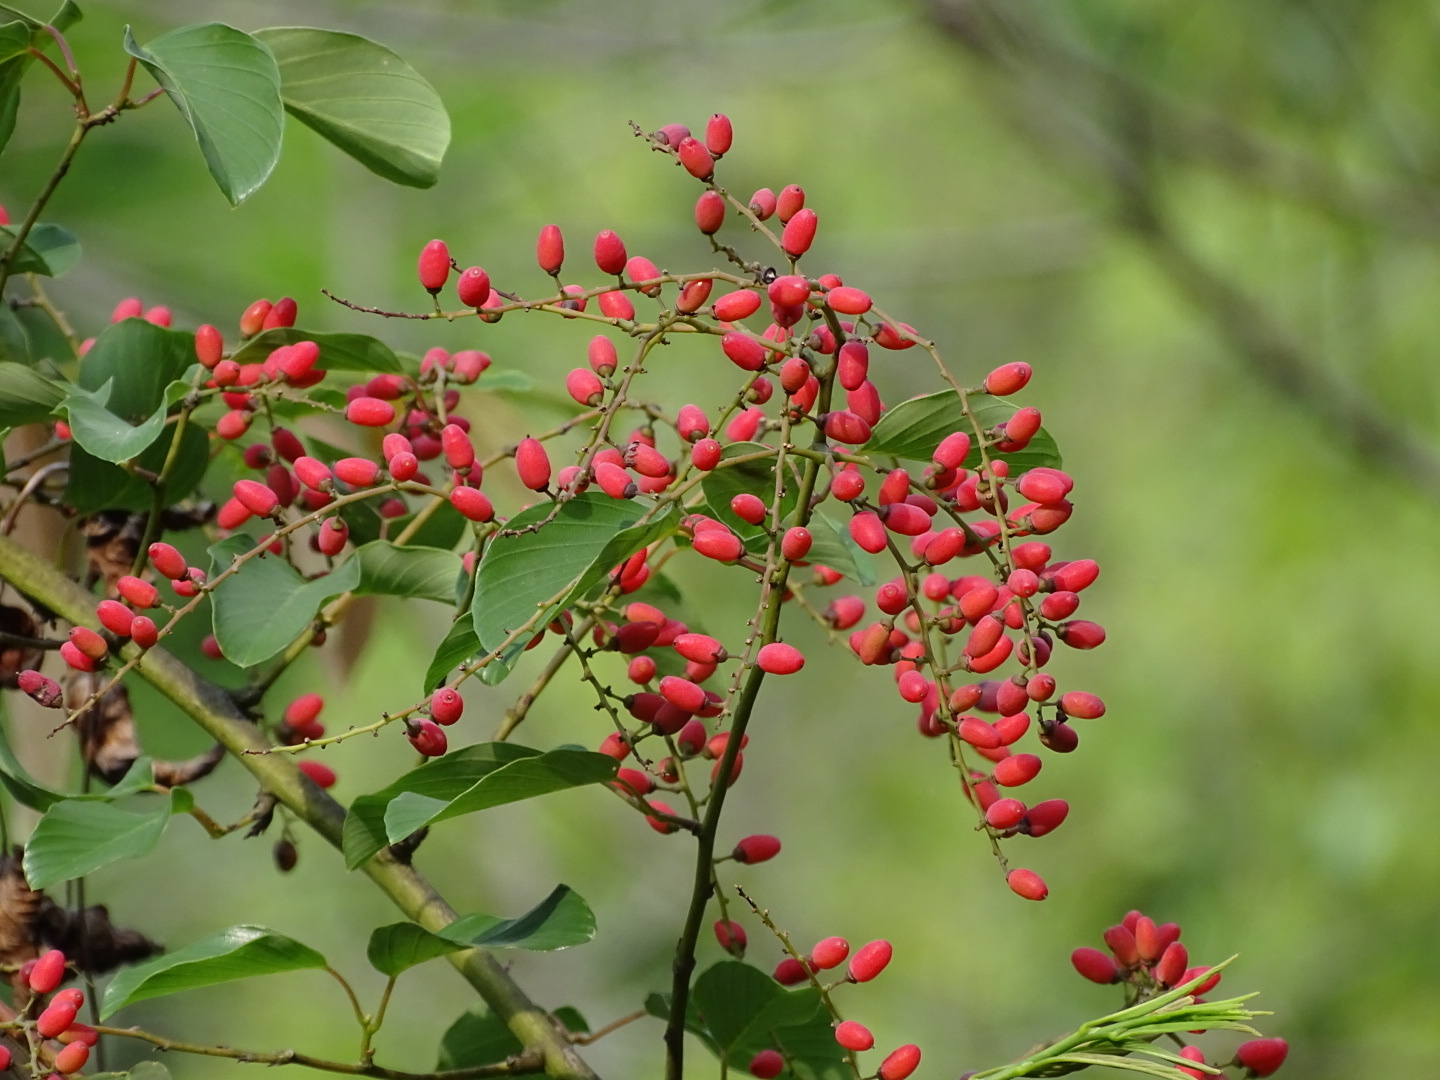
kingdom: Plantae
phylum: Tracheophyta
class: Magnoliopsida
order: Rosales
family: Rhamnaceae
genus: Berchemia
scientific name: Berchemia floribunda
